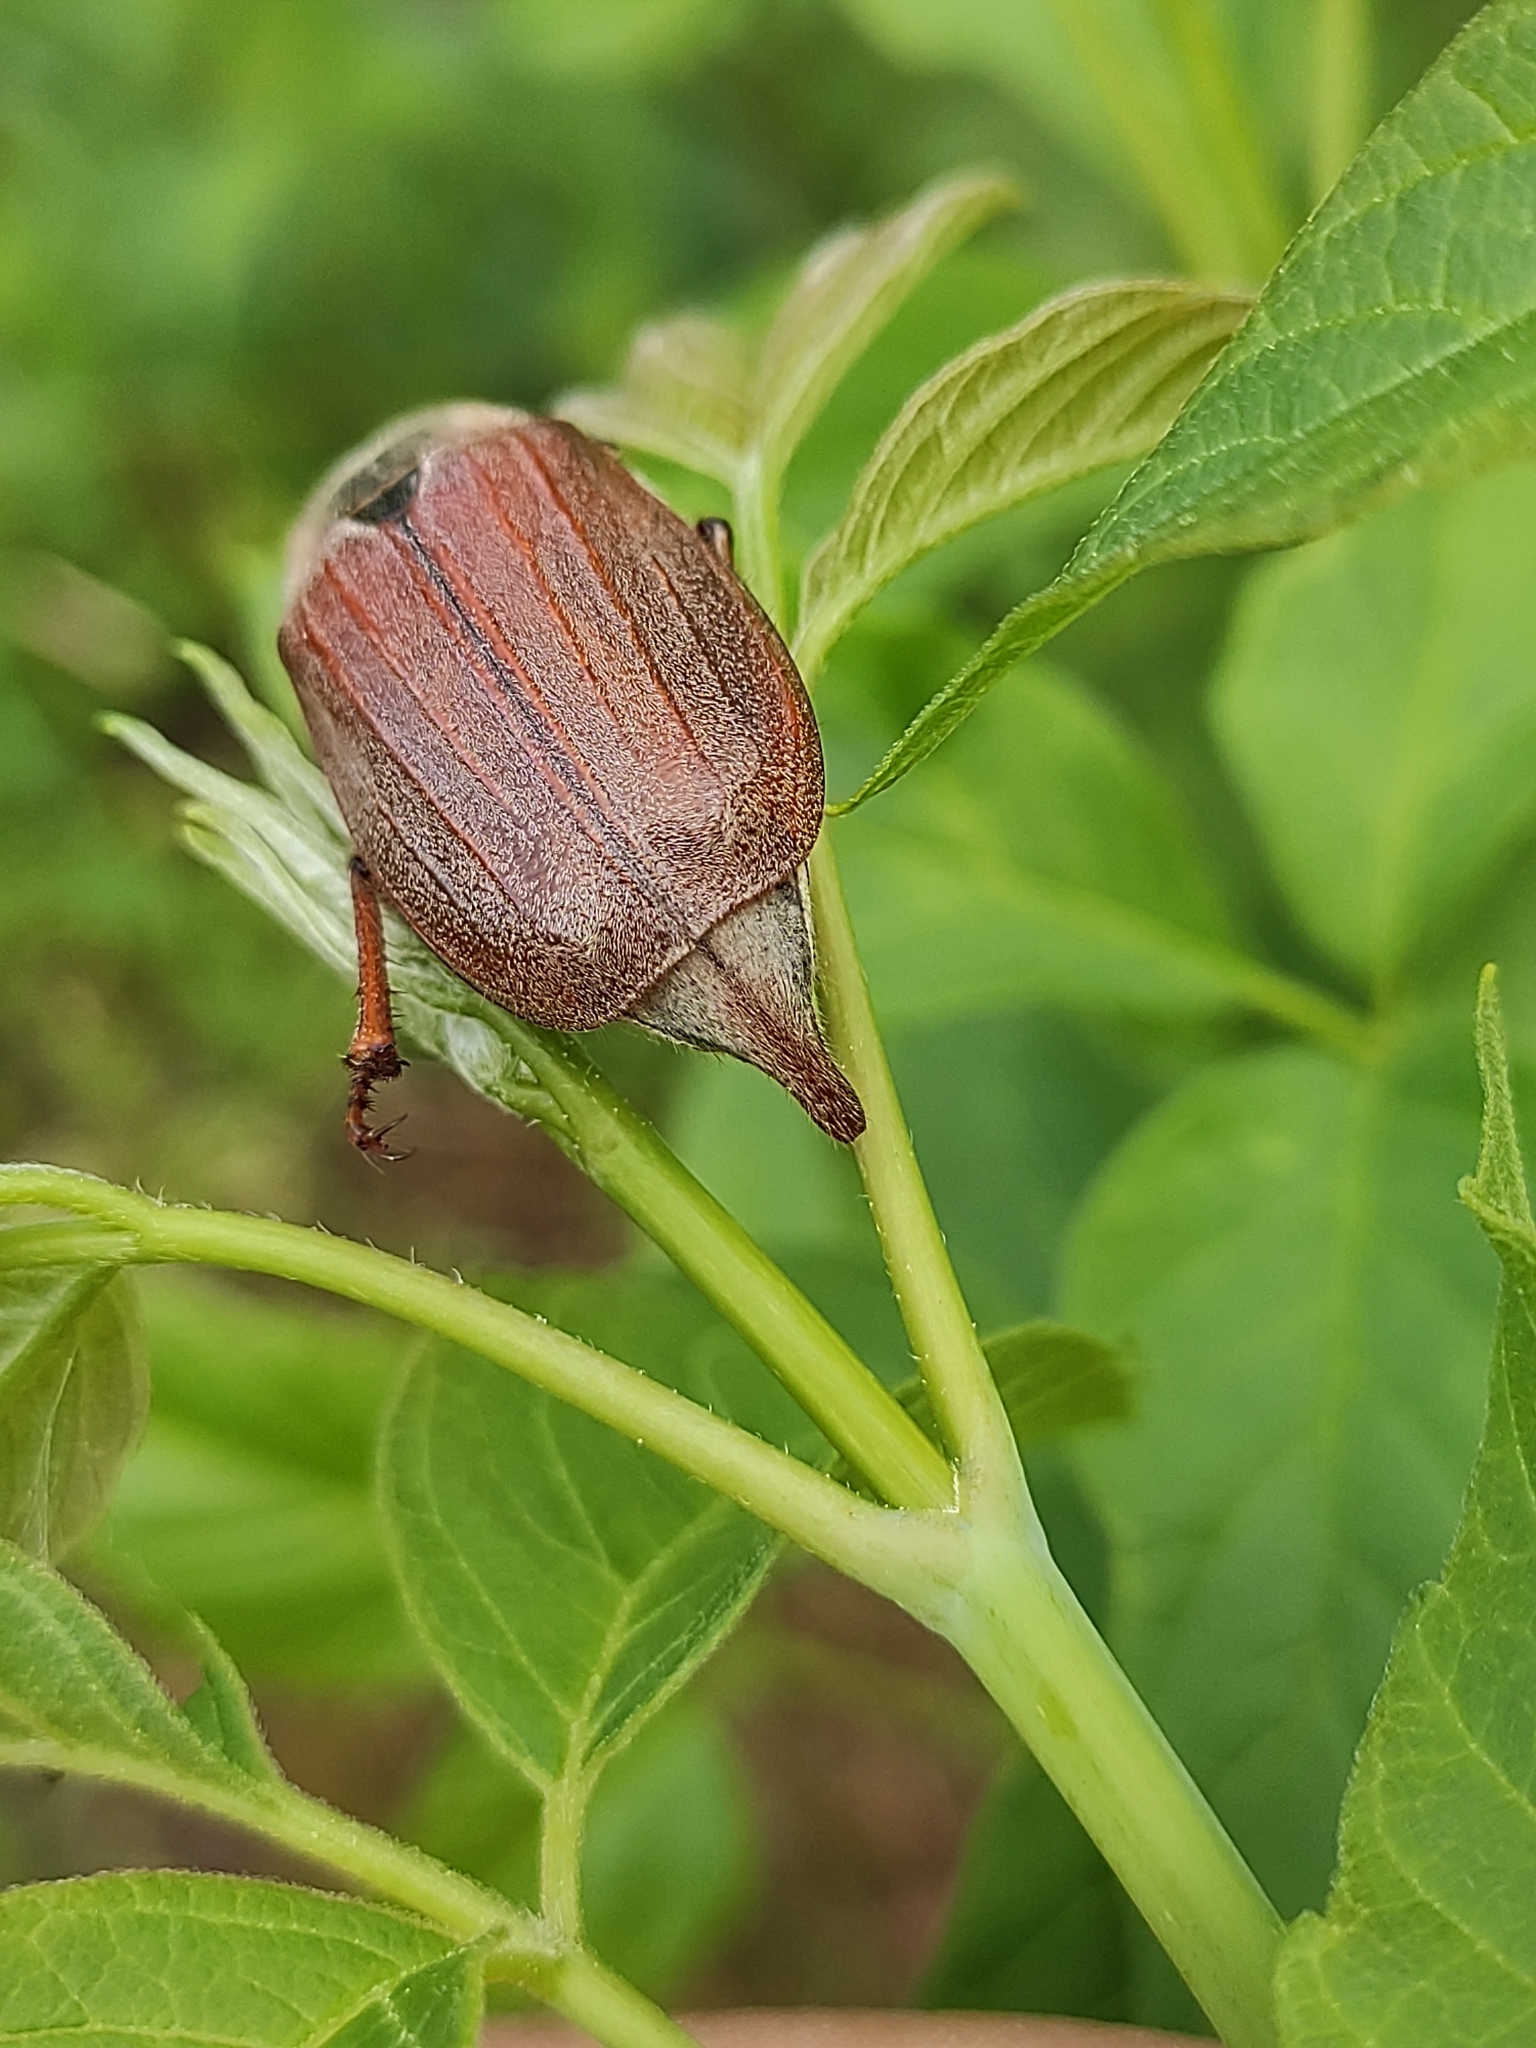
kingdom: Animalia
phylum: Arthropoda
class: Insecta
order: Coleoptera
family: Scarabaeidae
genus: Melolontha
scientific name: Melolontha melolontha
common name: Cockchafer maybeetle
